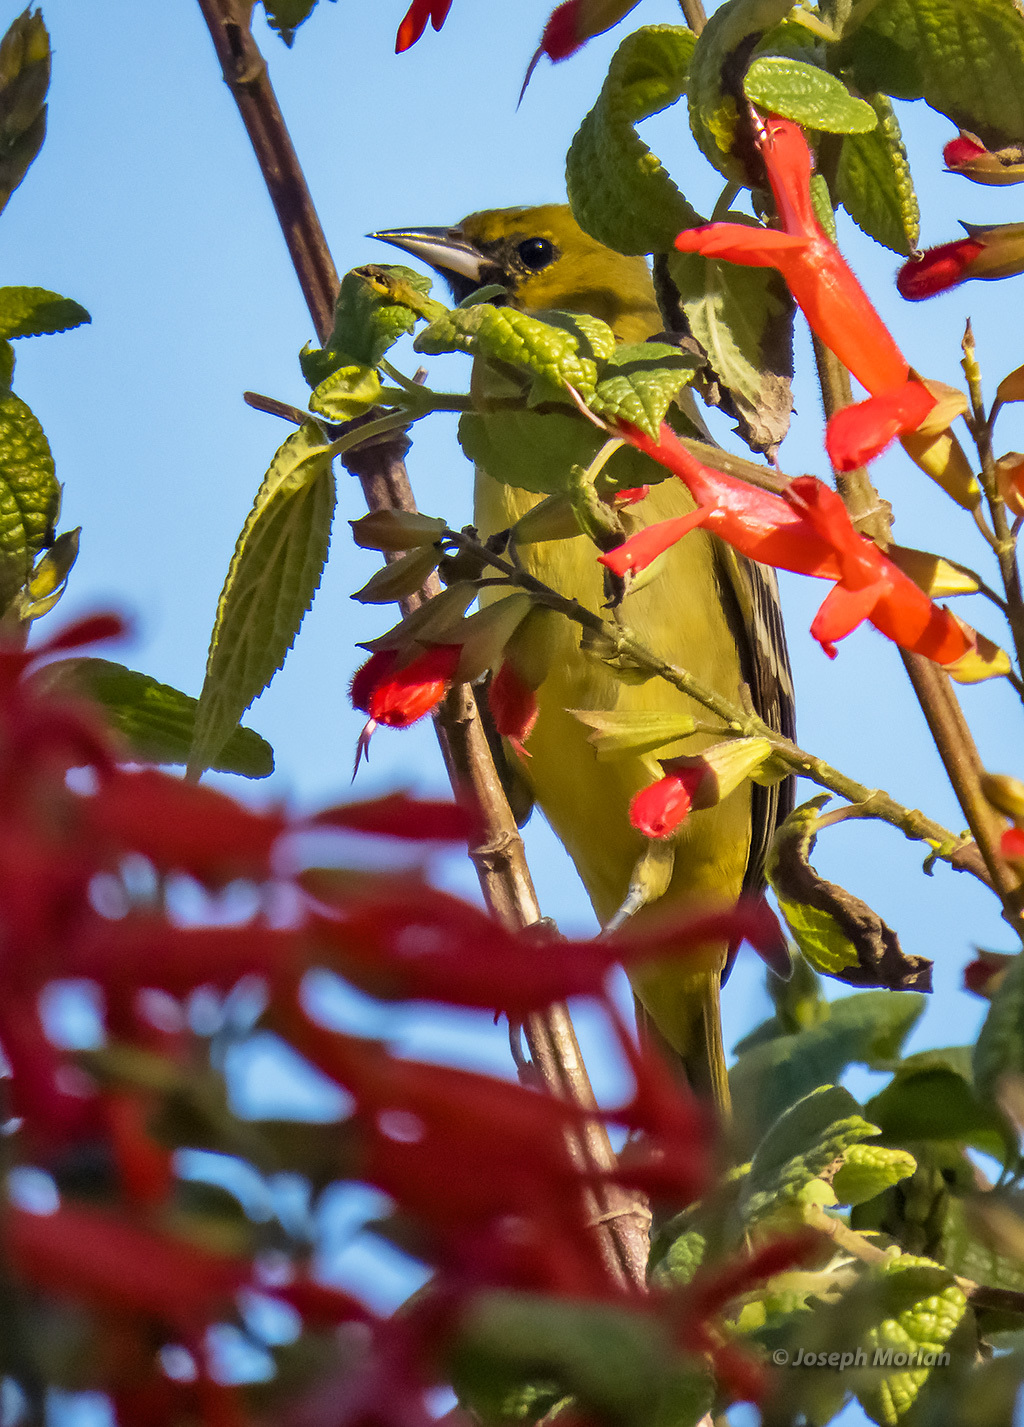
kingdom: Animalia
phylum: Chordata
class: Aves
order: Passeriformes
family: Icteridae
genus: Icterus
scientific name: Icterus spurius
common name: Orchard oriole
